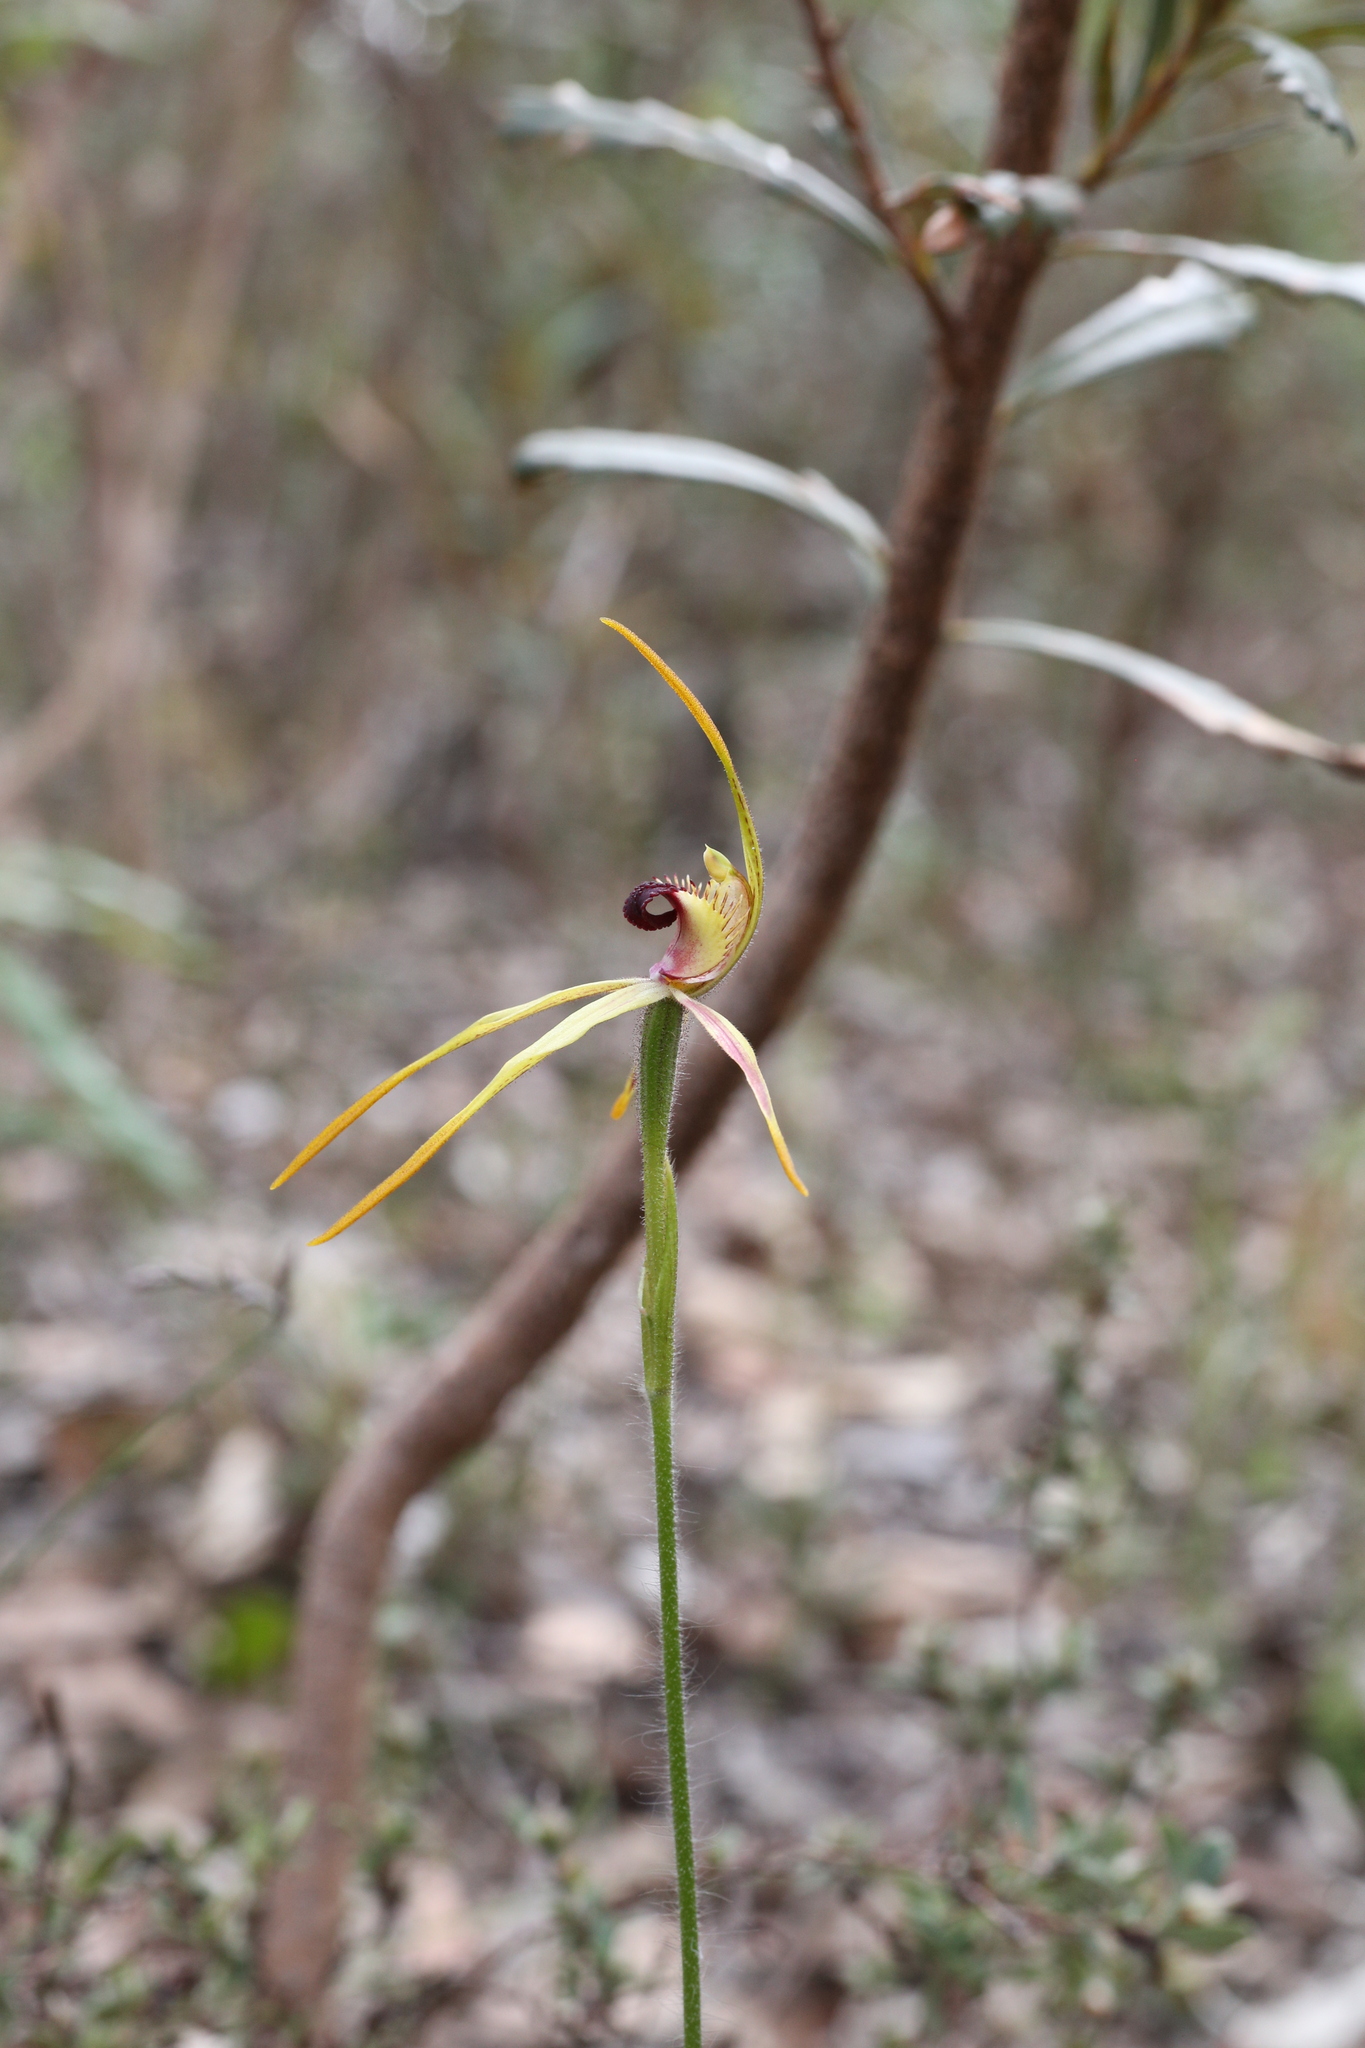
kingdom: Plantae
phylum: Tracheophyta
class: Liliopsida
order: Asparagales
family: Orchidaceae
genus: Caladenia
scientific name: Caladenia longiclavata
